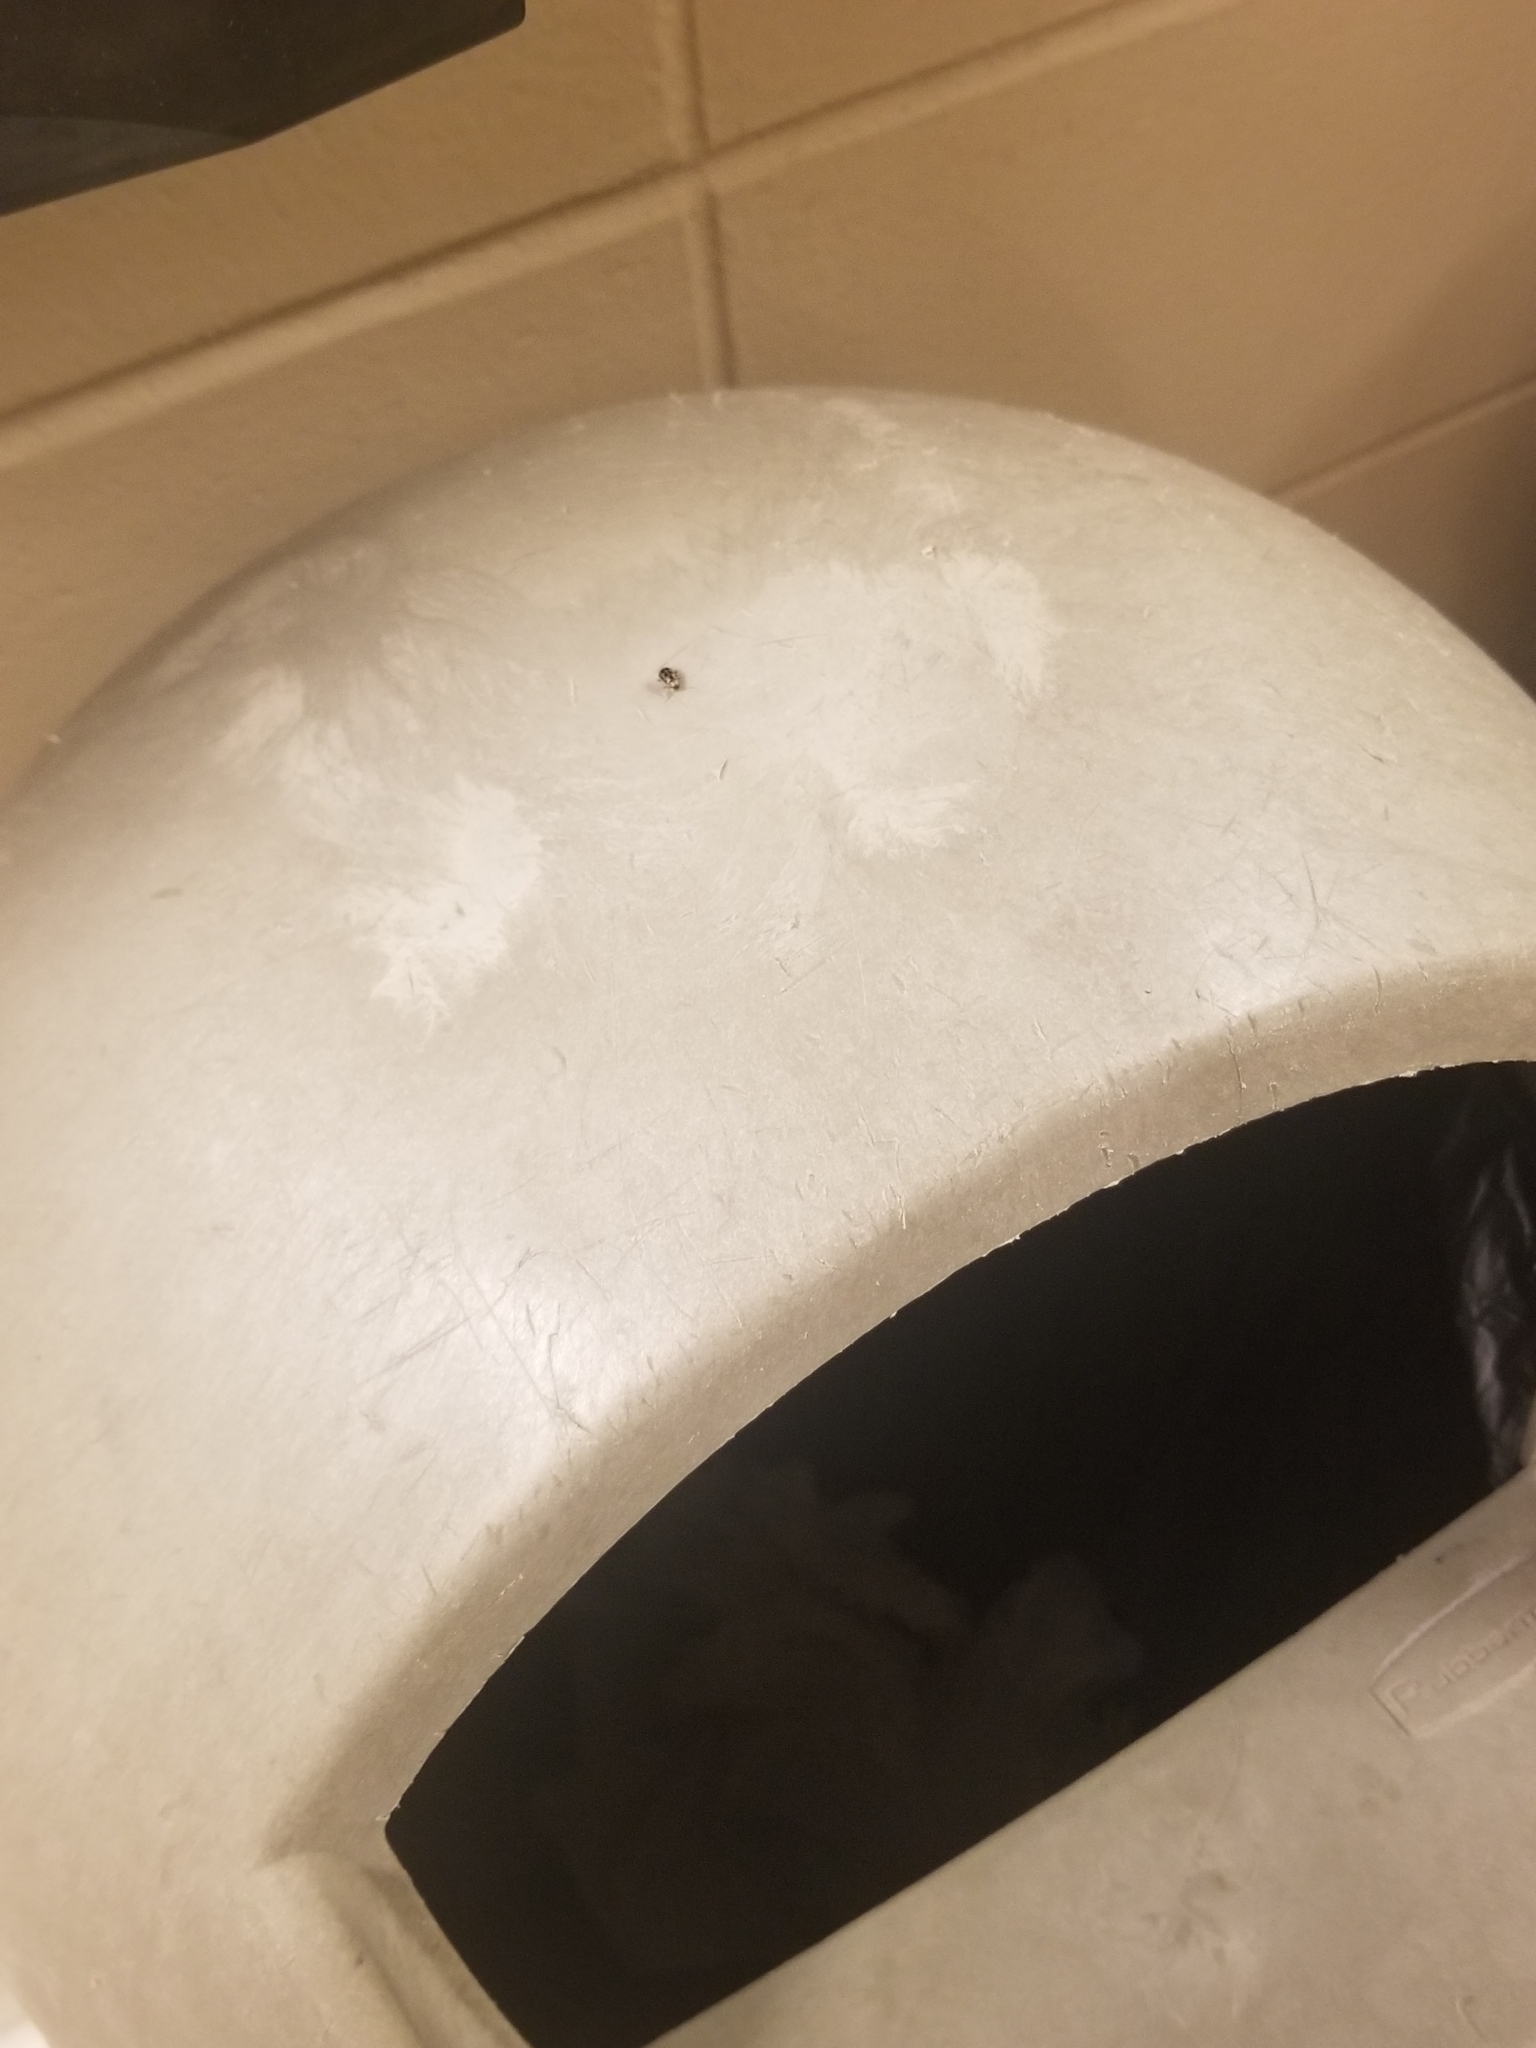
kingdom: Animalia
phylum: Arthropoda
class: Insecta
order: Coleoptera
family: Chrysomelidae
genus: Cerotoma
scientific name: Cerotoma trifurcata
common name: Bean leaf beetle
